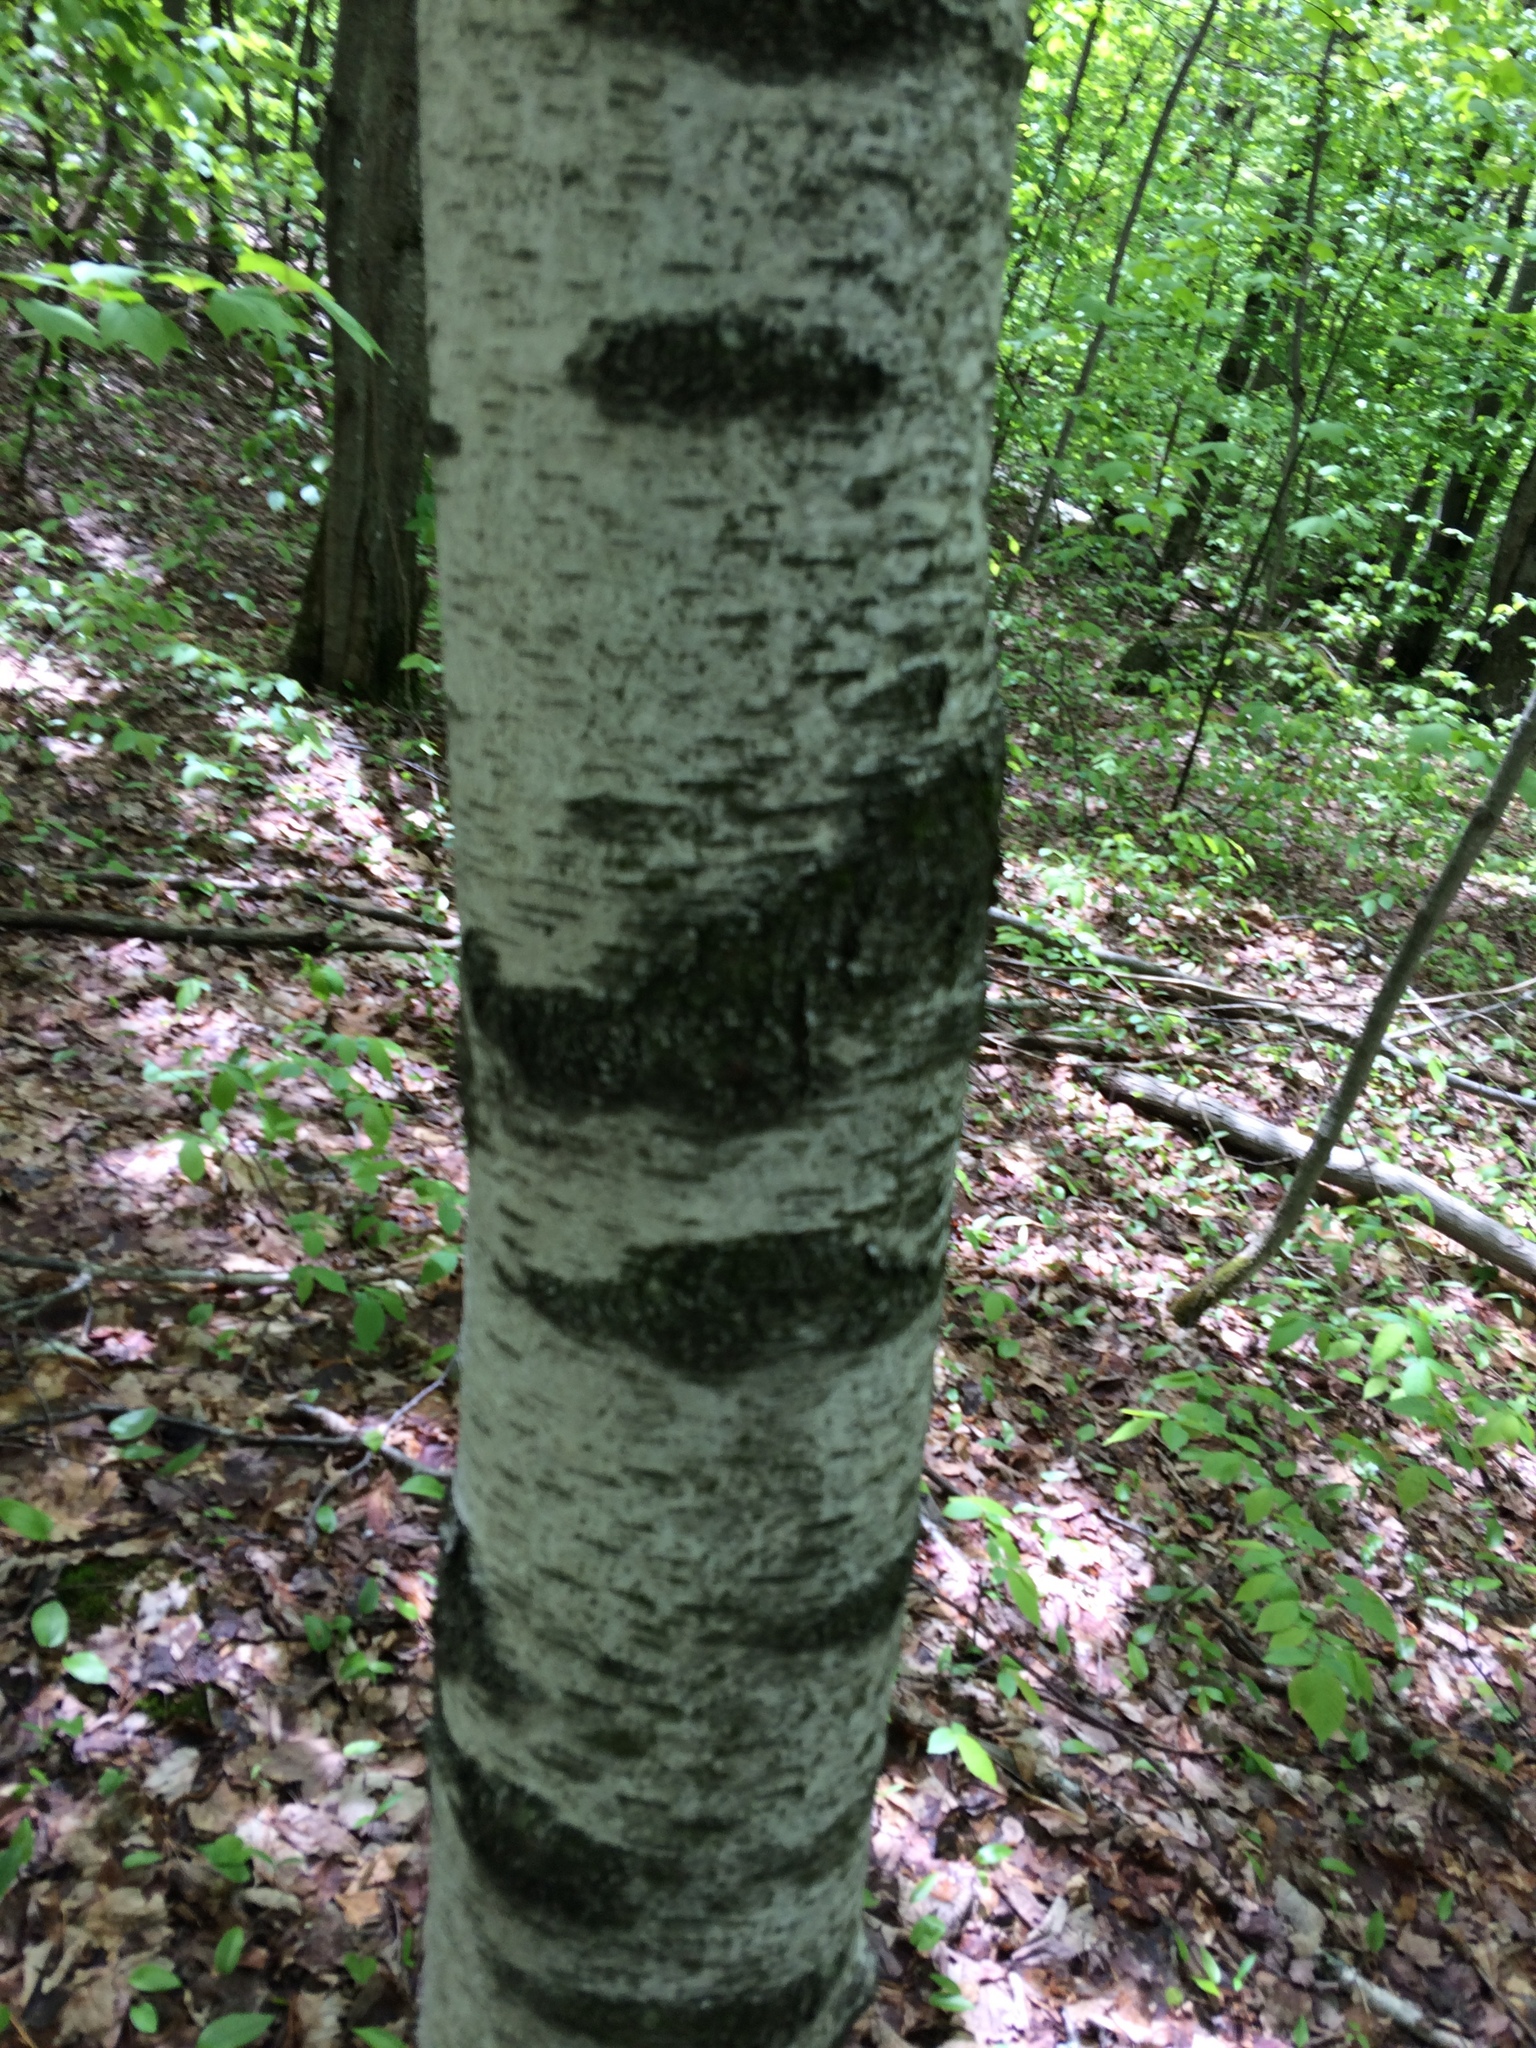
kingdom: Plantae
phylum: Tracheophyta
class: Magnoliopsida
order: Fagales
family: Betulaceae
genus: Betula
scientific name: Betula populifolia
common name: Fire birch
